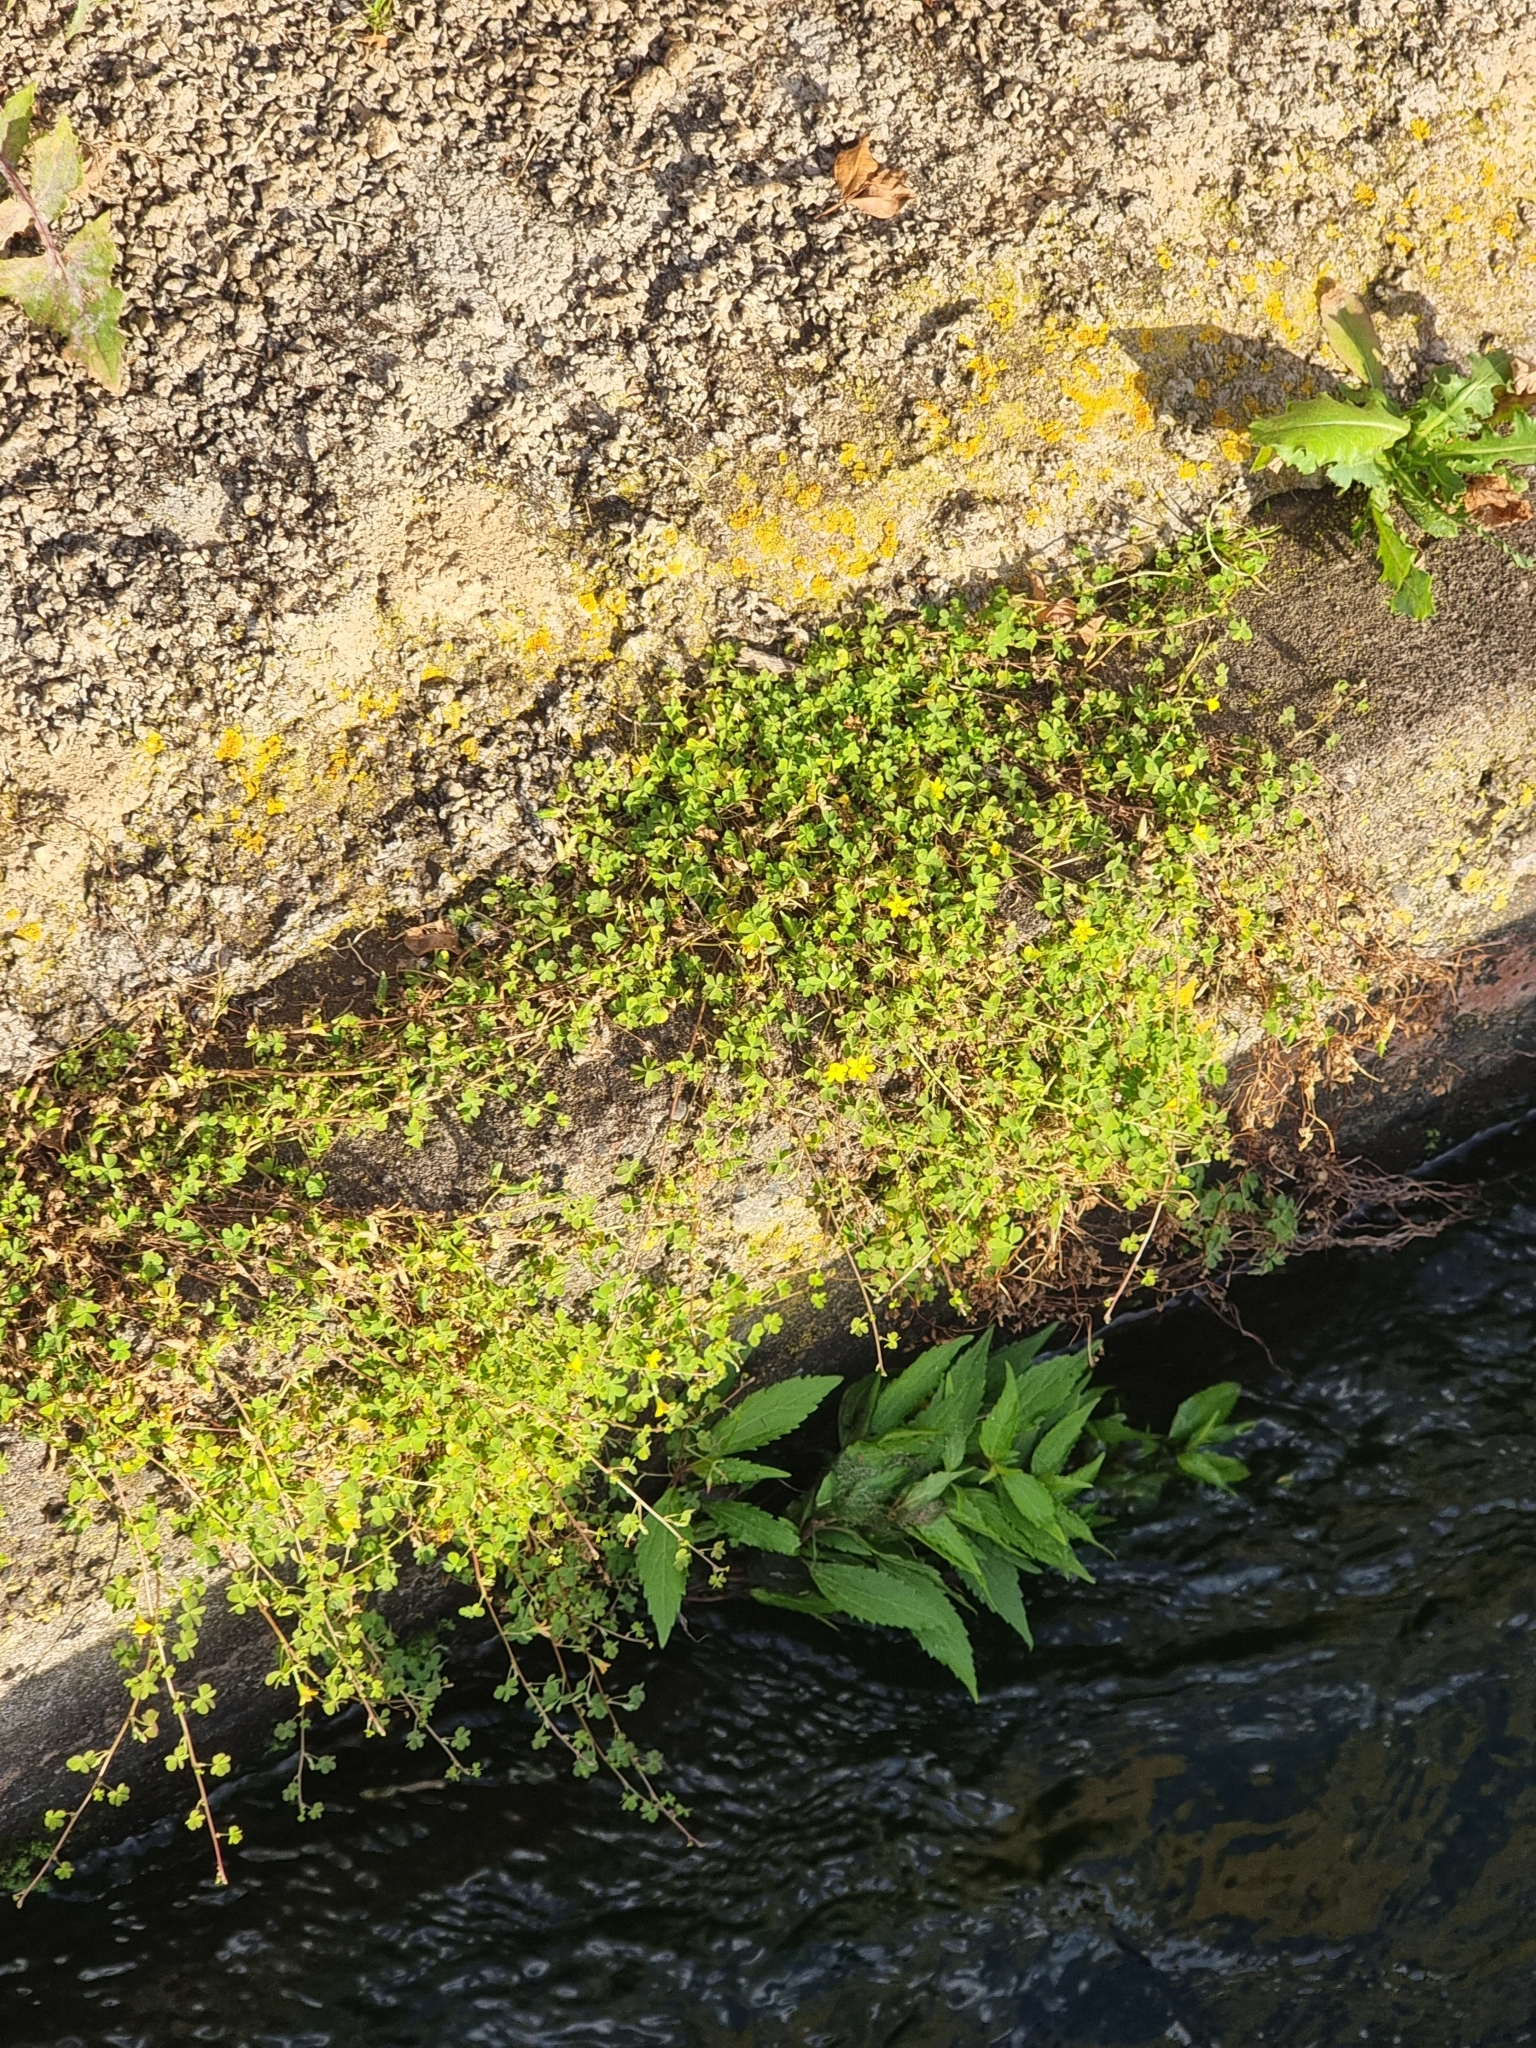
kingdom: Plantae
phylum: Tracheophyta
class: Magnoliopsida
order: Oxalidales
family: Oxalidaceae
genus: Oxalis
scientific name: Oxalis corniculata
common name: Procumbent yellow-sorrel
